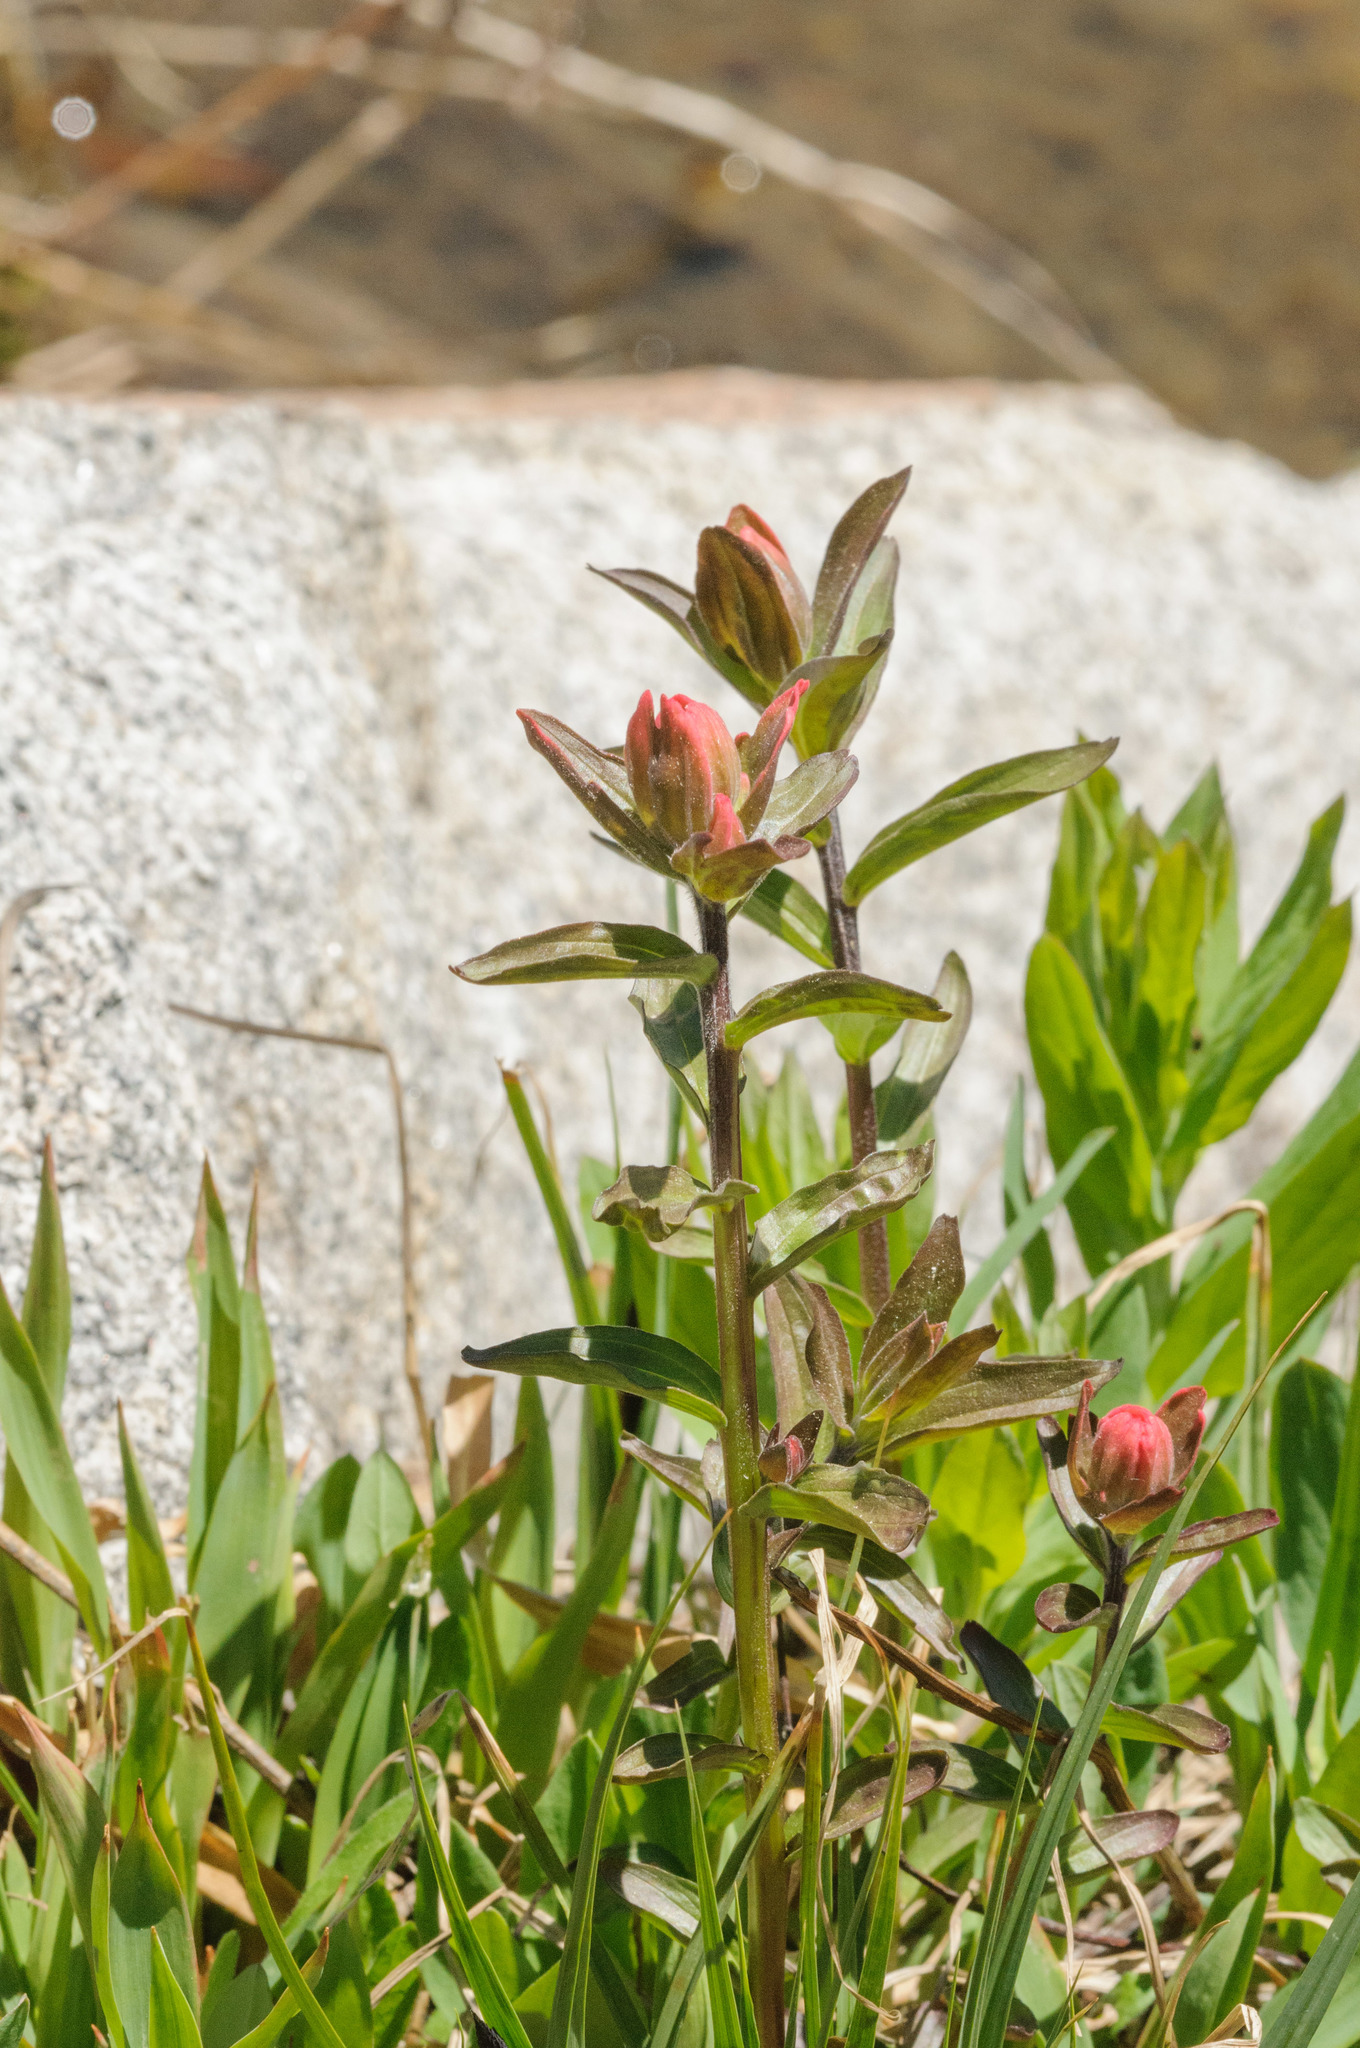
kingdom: Plantae
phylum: Tracheophyta
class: Magnoliopsida
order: Lamiales
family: Orobanchaceae
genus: Castilleja
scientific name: Castilleja rhexifolia
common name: Rocky mountain paintbrush
